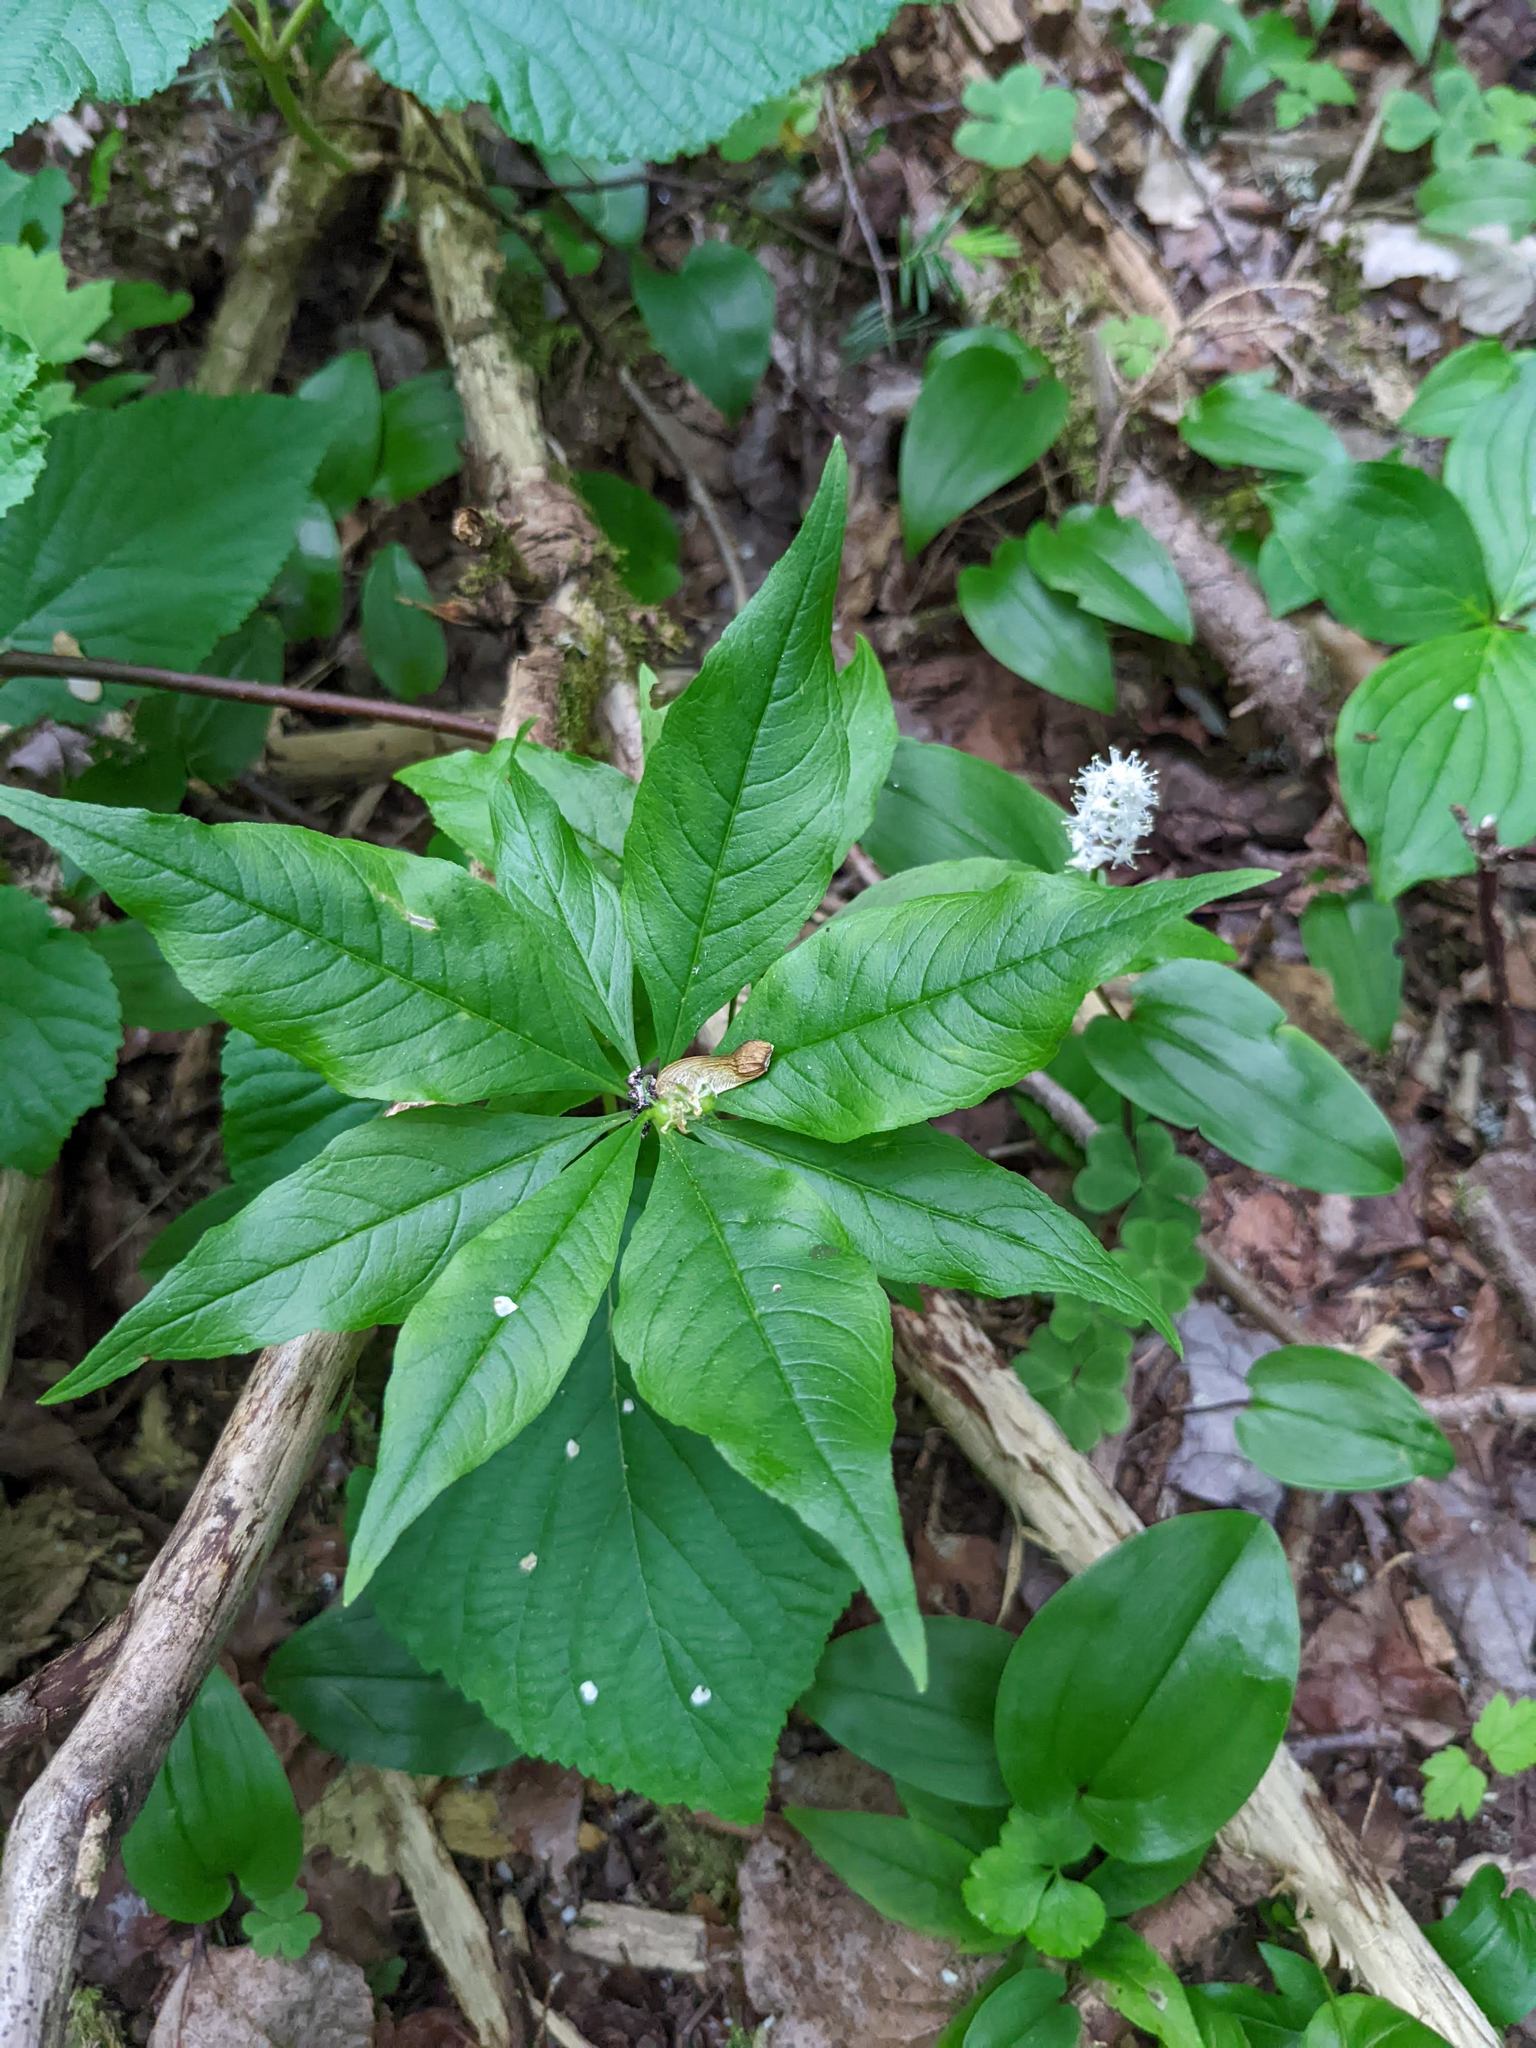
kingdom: Plantae
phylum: Tracheophyta
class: Magnoliopsida
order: Ericales
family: Primulaceae
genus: Lysimachia
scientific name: Lysimachia borealis
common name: American starflower
